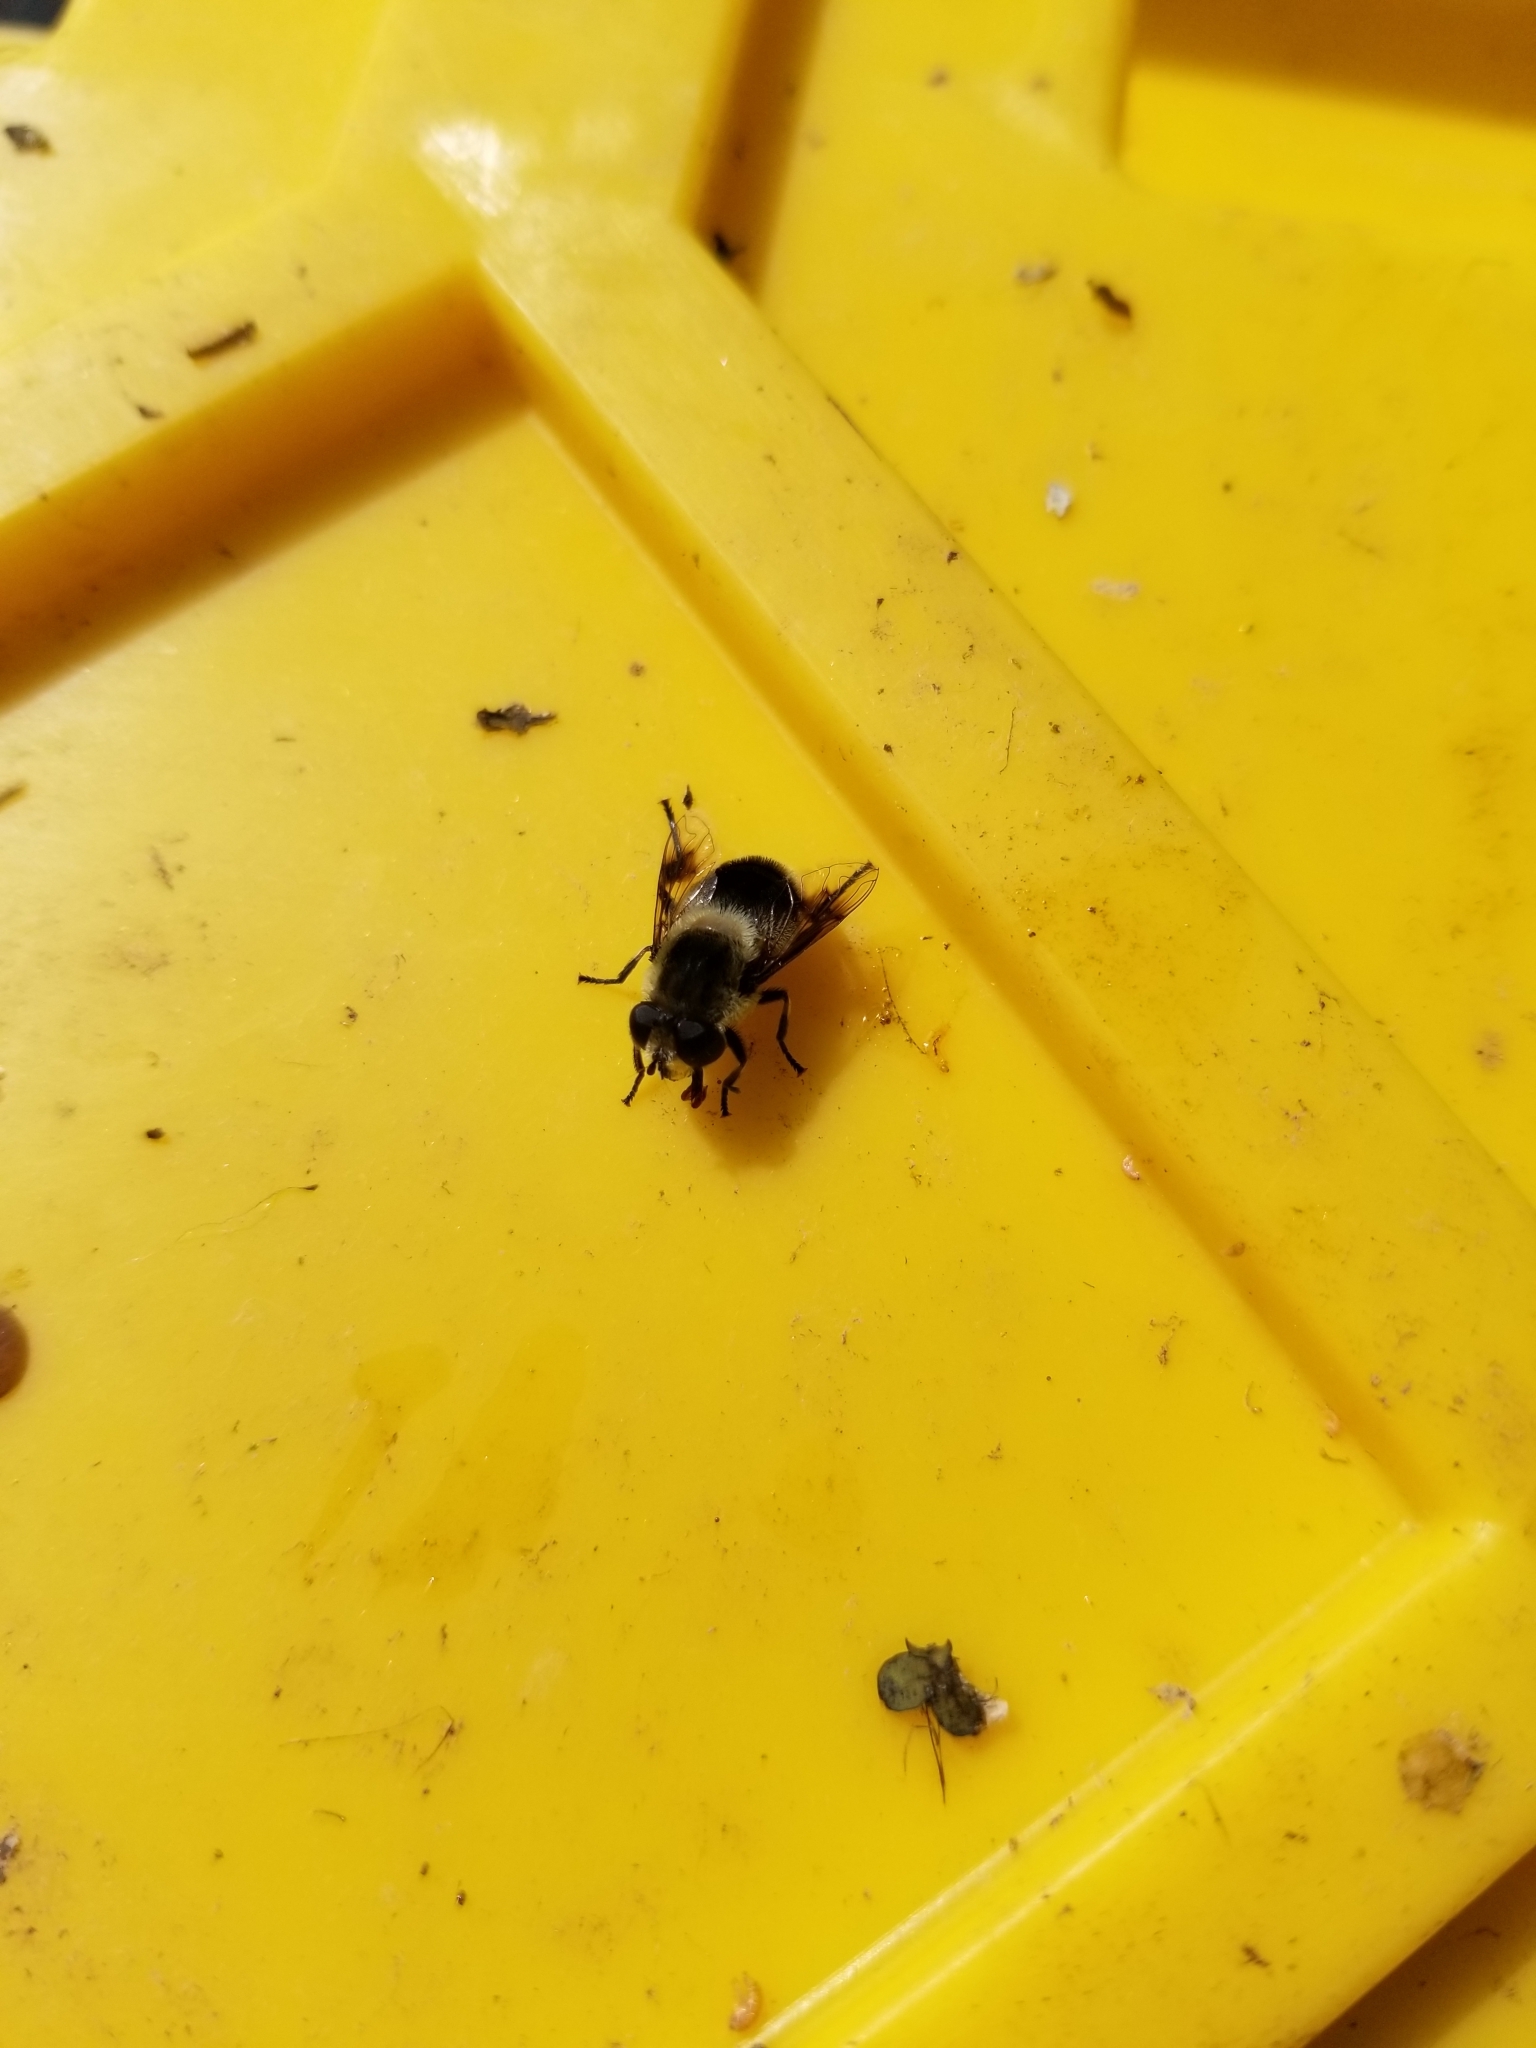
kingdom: Animalia
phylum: Arthropoda
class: Insecta
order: Diptera
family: Syrphidae
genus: Eristalis
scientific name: Eristalis anthophorina
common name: Orange-spotted drone fly
